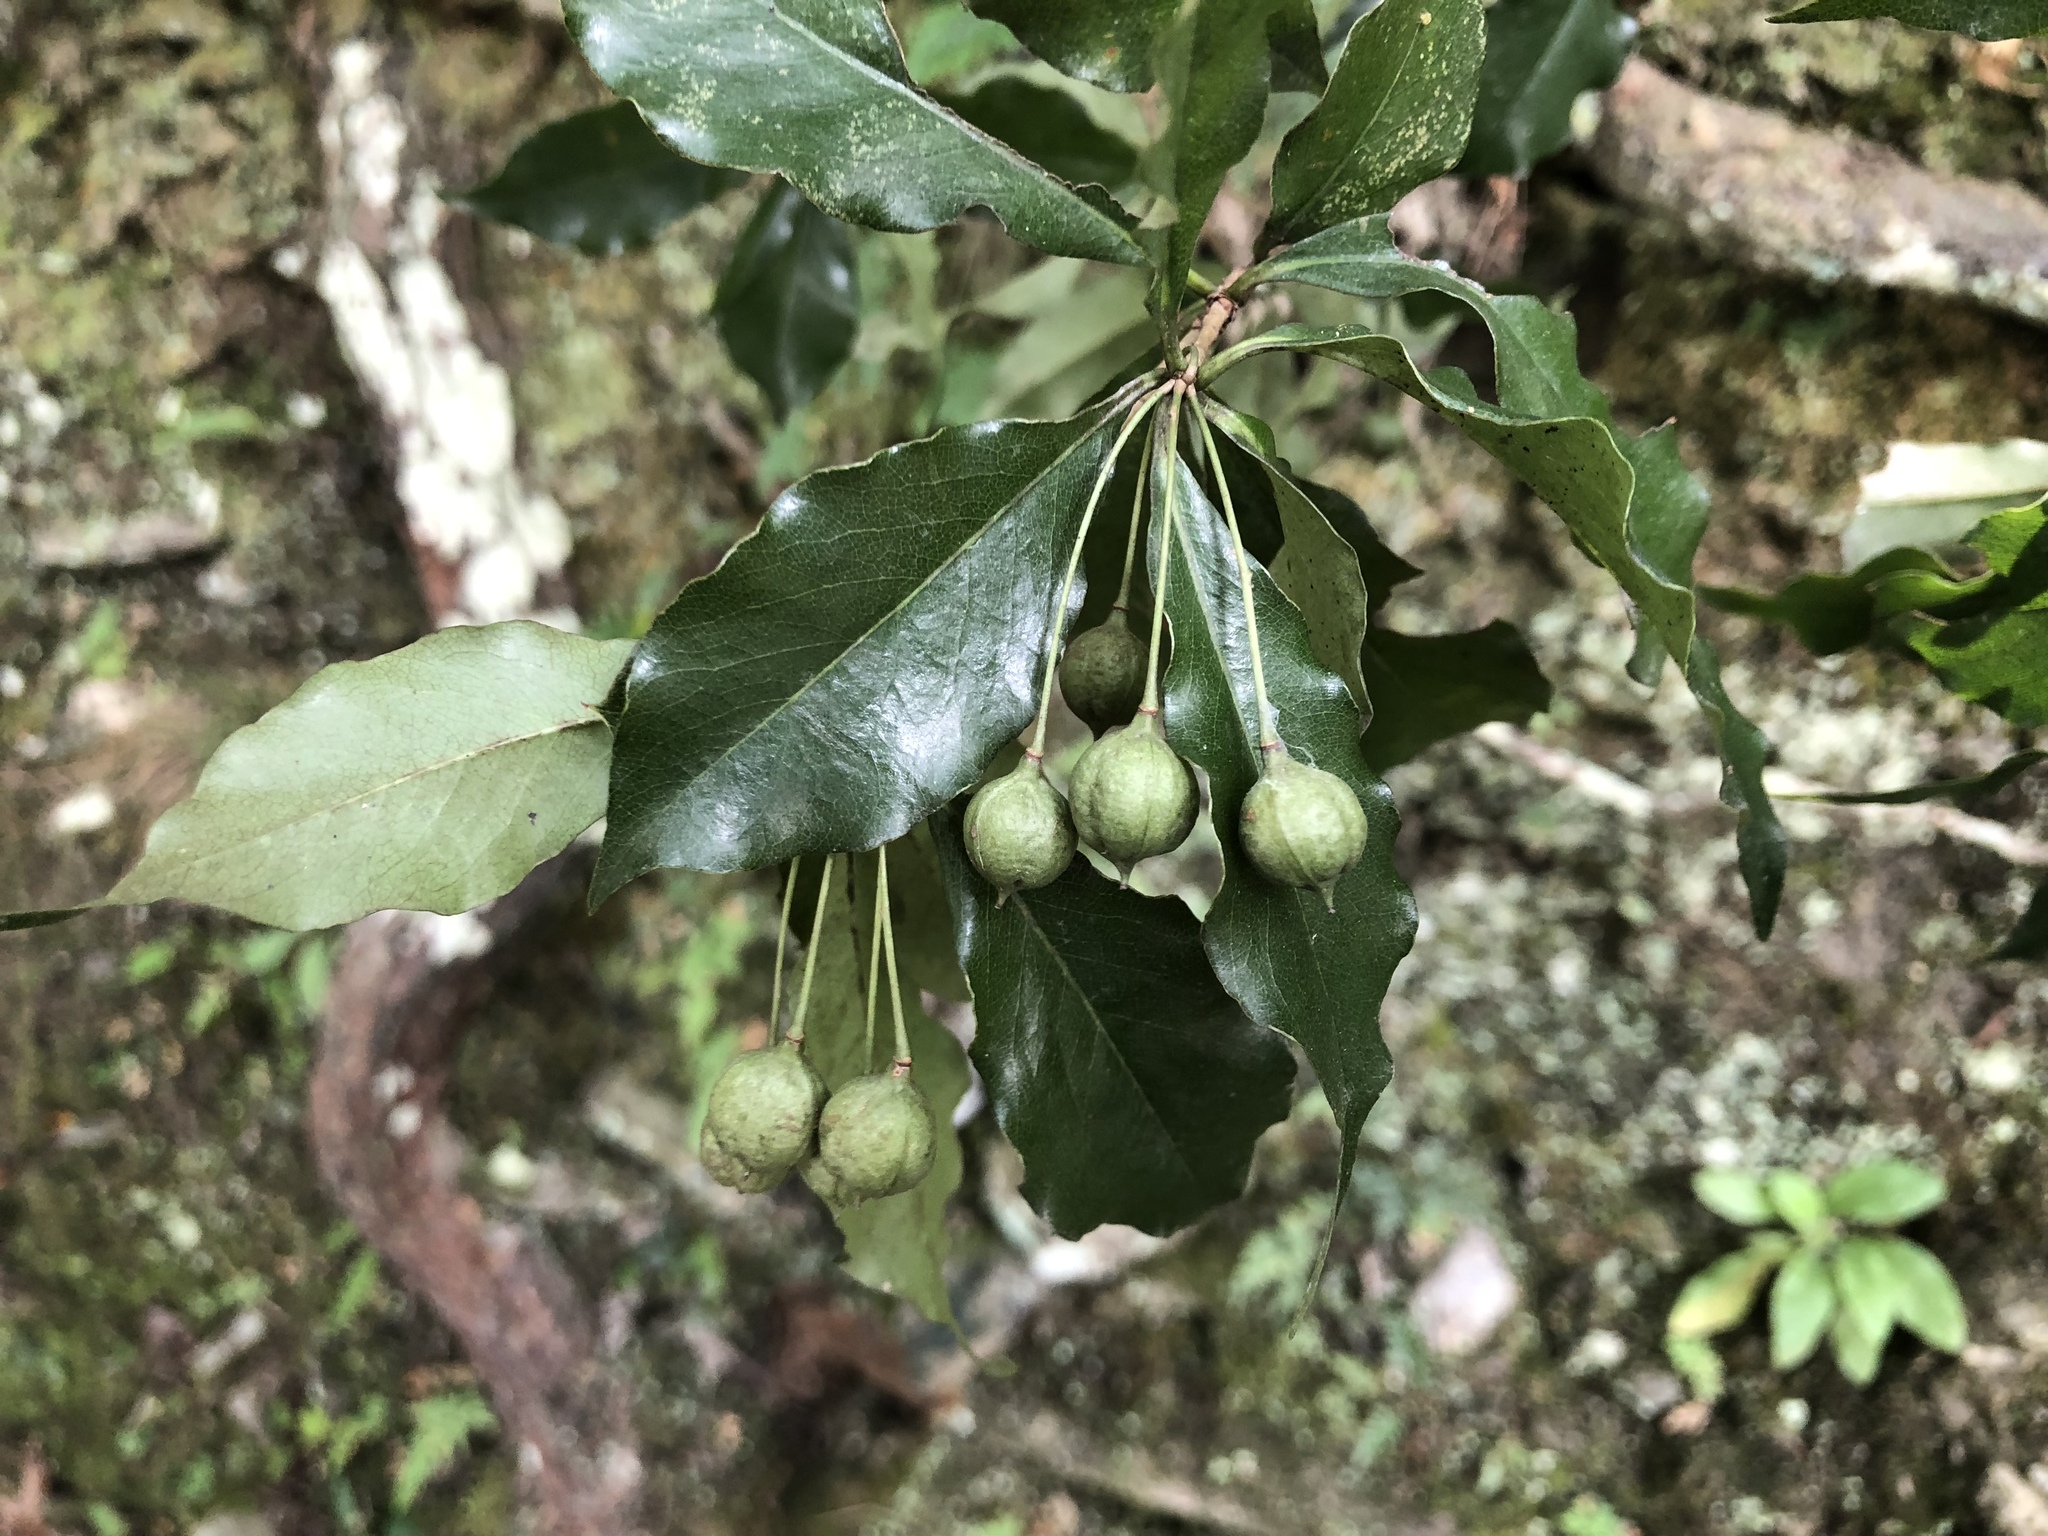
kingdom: Plantae
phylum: Tracheophyta
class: Magnoliopsida
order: Apiales
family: Pittosporaceae
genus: Pittosporum
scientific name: Pittosporum illicioides
